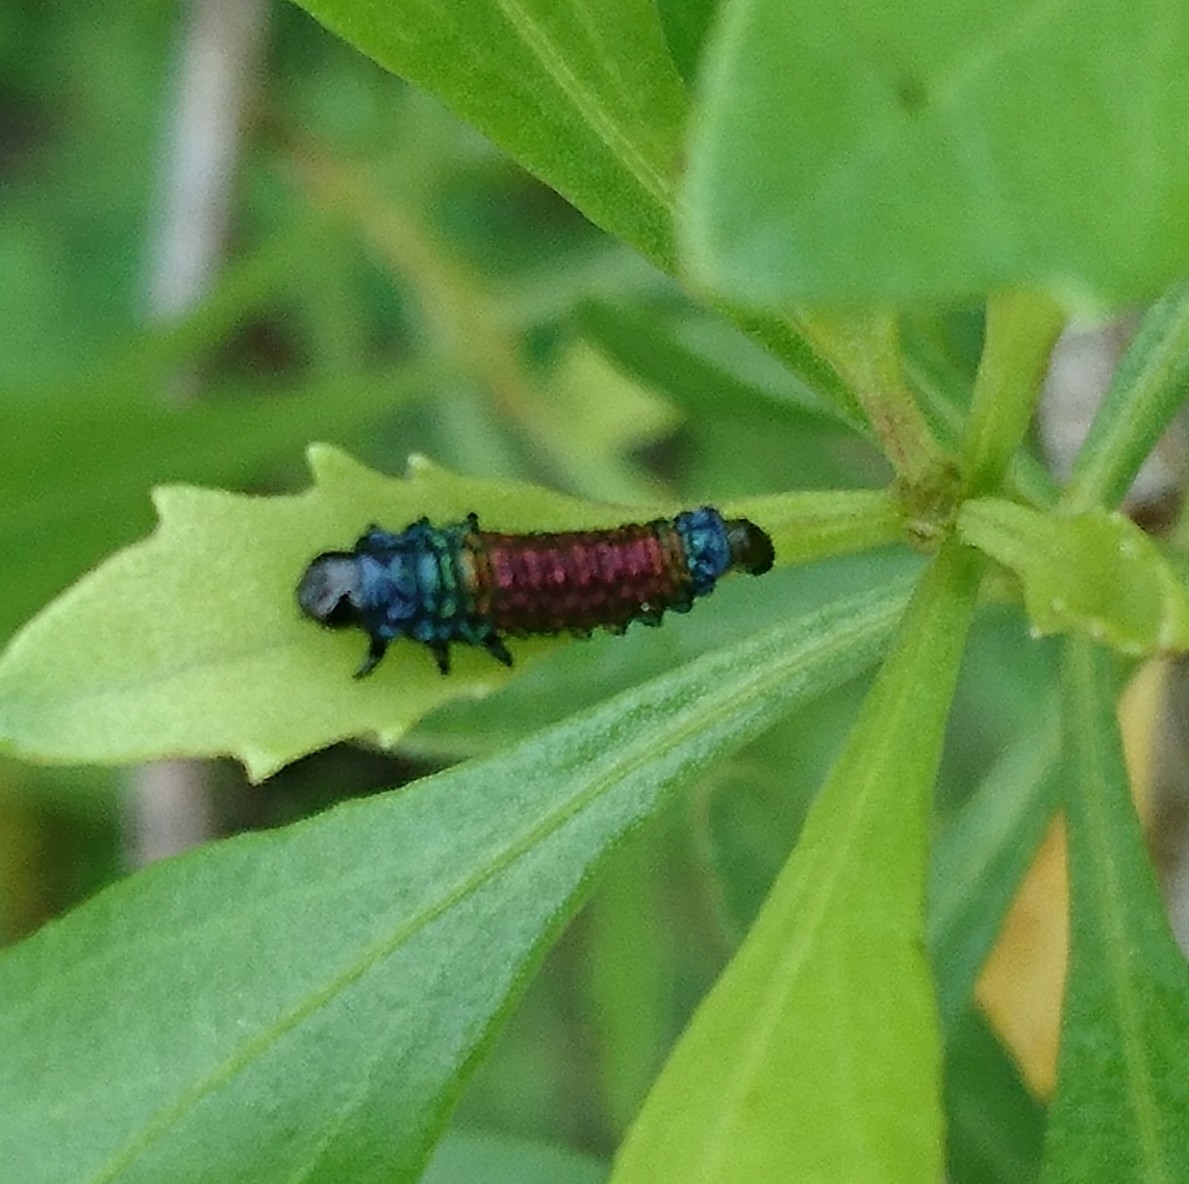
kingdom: Animalia
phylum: Arthropoda
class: Insecta
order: Coleoptera
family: Chrysomelidae
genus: Trirhabda
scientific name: Trirhabda bacharidis
